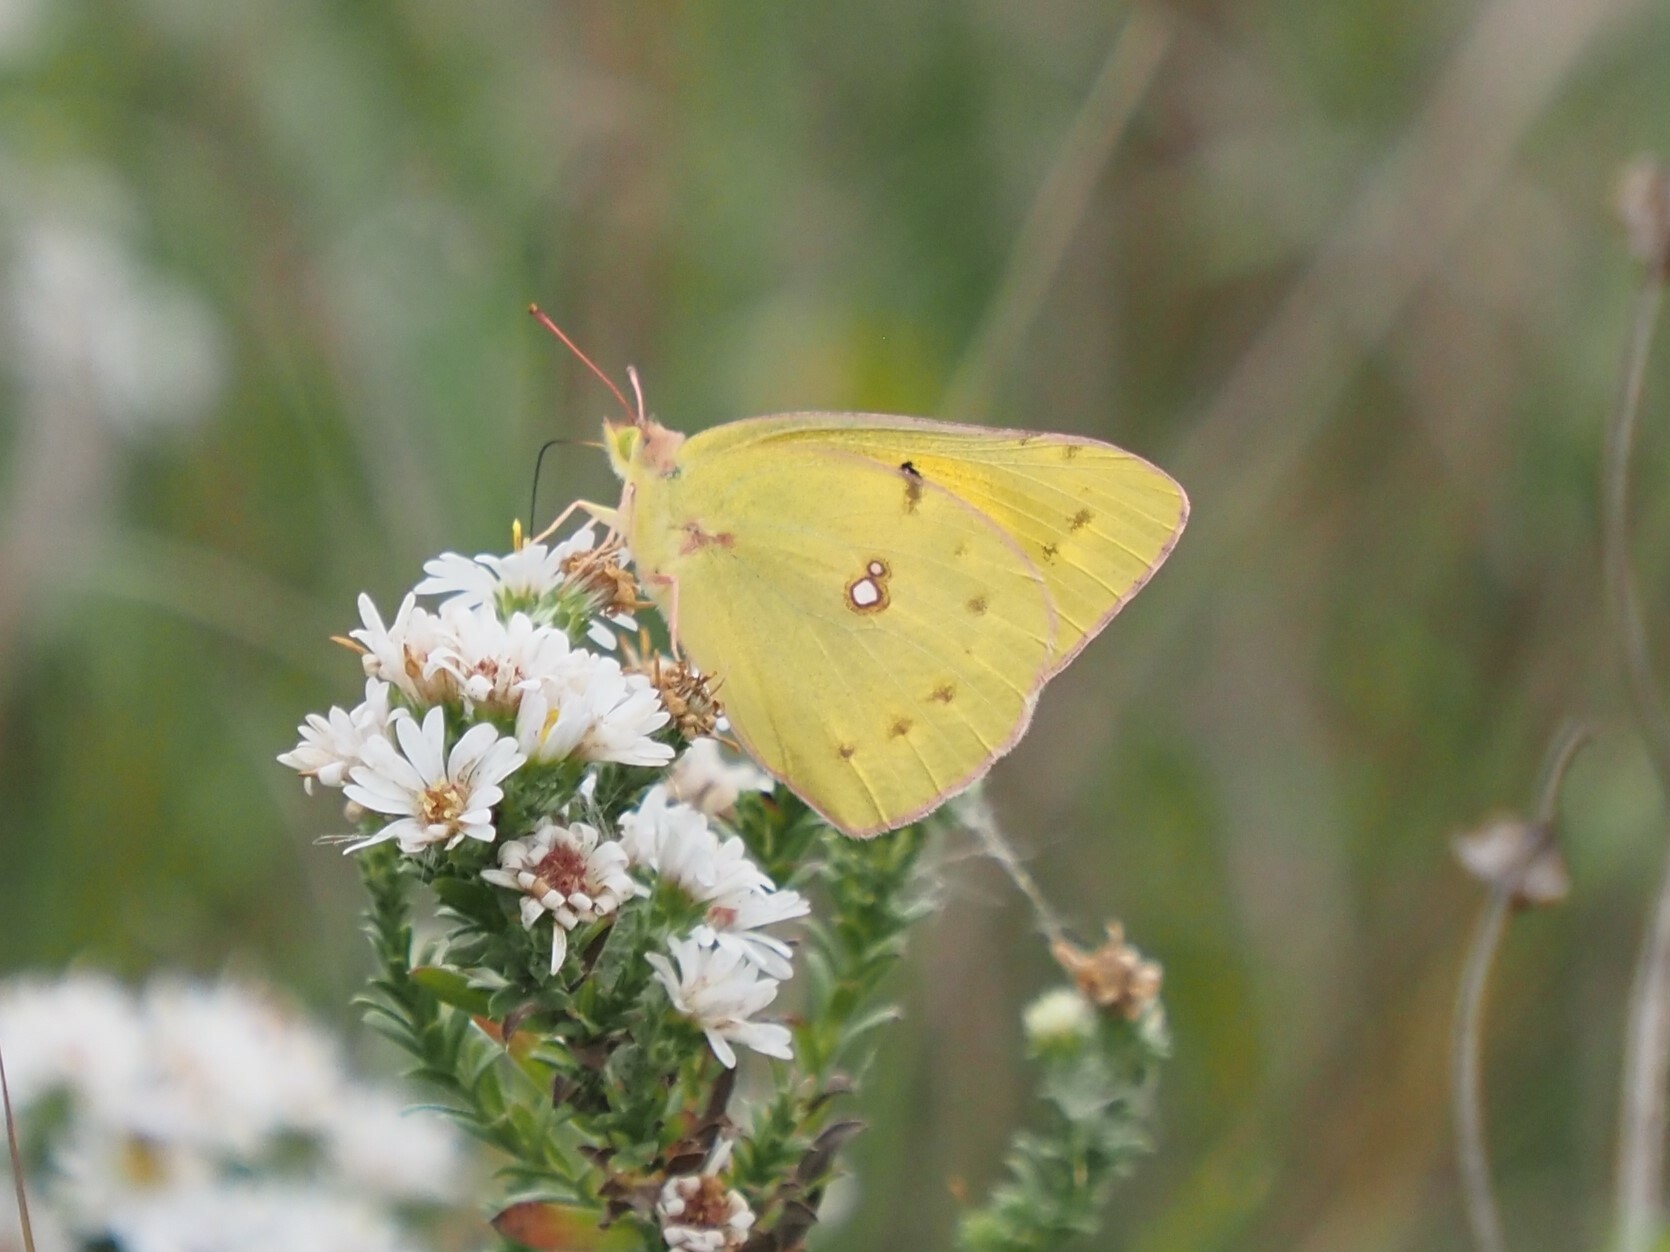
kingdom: Animalia
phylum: Arthropoda
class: Insecta
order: Lepidoptera
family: Pieridae
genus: Colias
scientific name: Colias eurytheme
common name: Alfalfa butterfly
